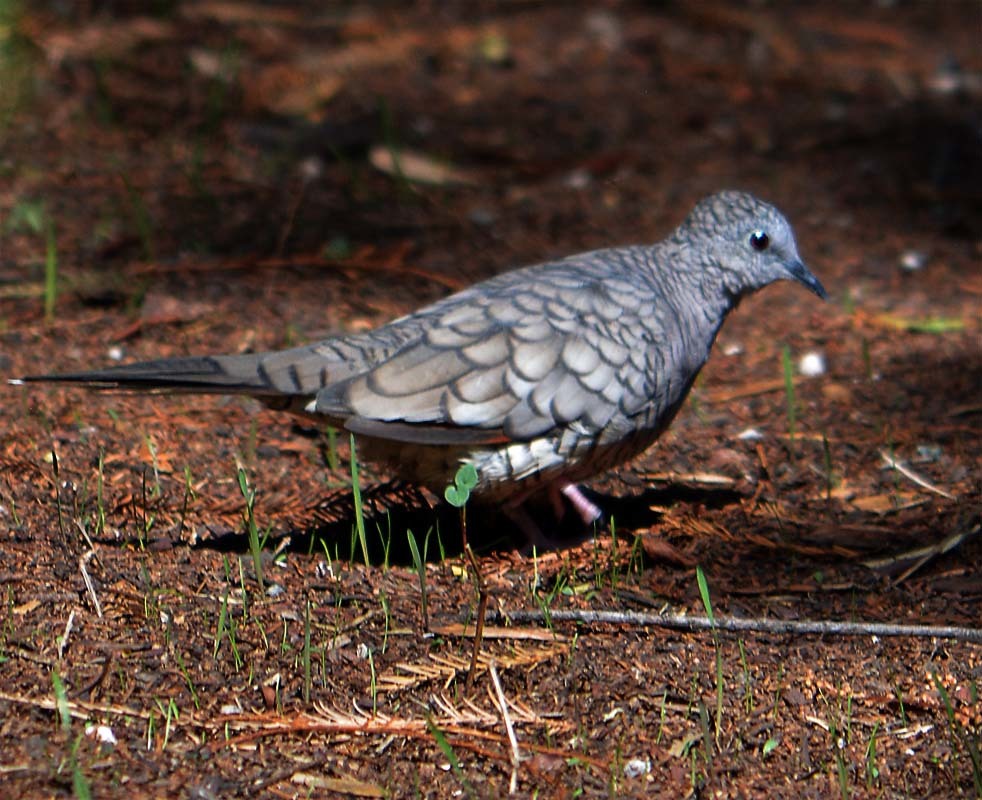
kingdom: Animalia
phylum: Chordata
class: Aves
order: Columbiformes
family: Columbidae
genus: Columbina
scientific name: Columbina inca
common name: Inca dove
